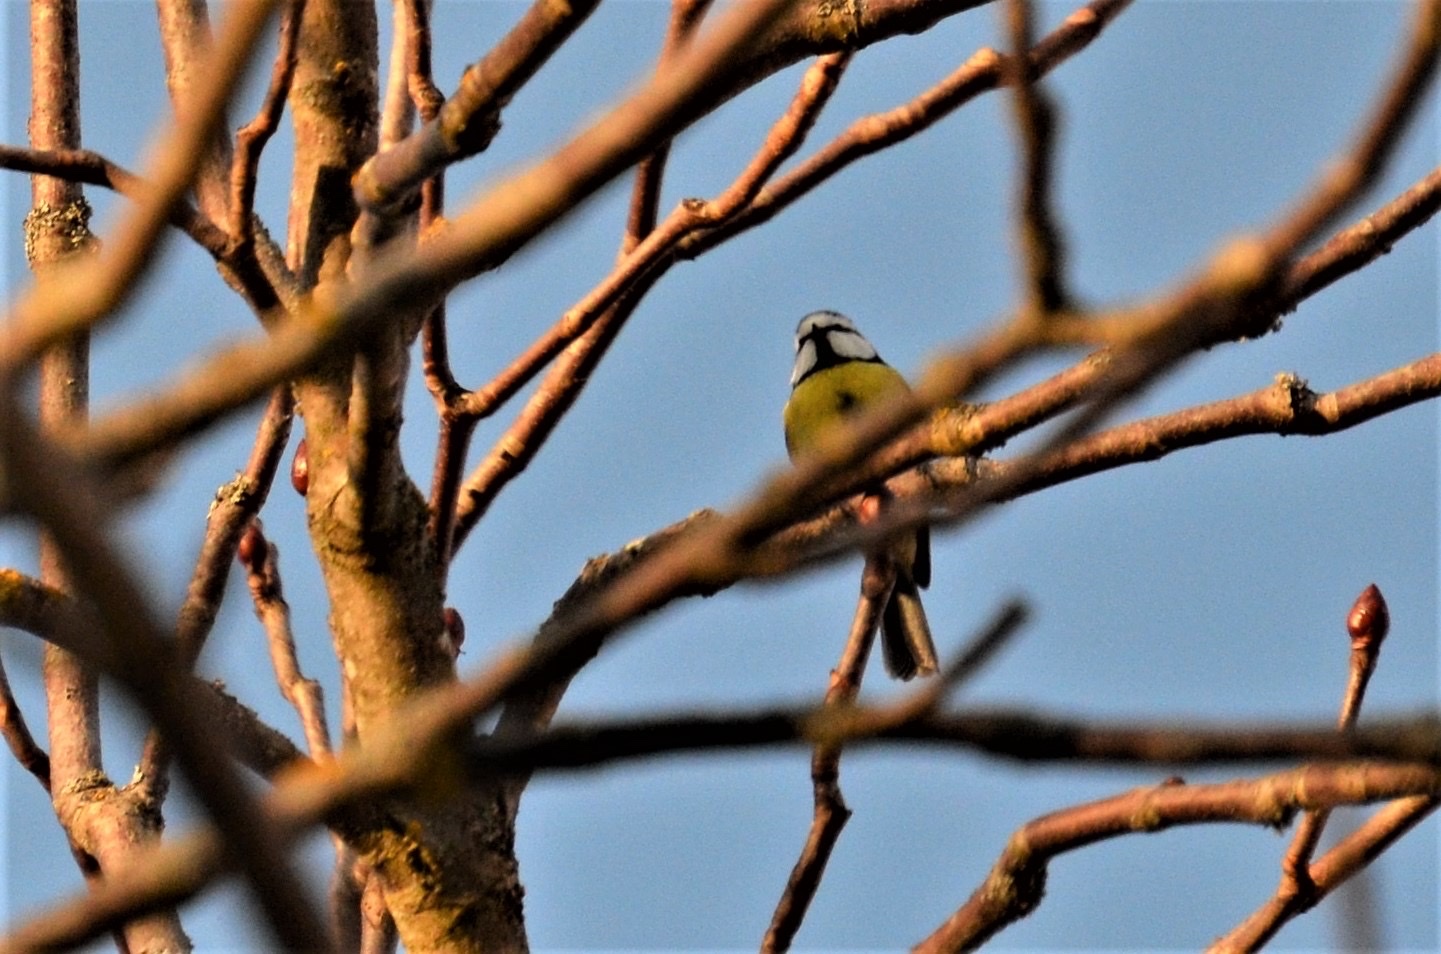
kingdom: Animalia
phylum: Chordata
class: Aves
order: Passeriformes
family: Paridae
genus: Cyanistes
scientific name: Cyanistes caeruleus
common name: Eurasian blue tit
